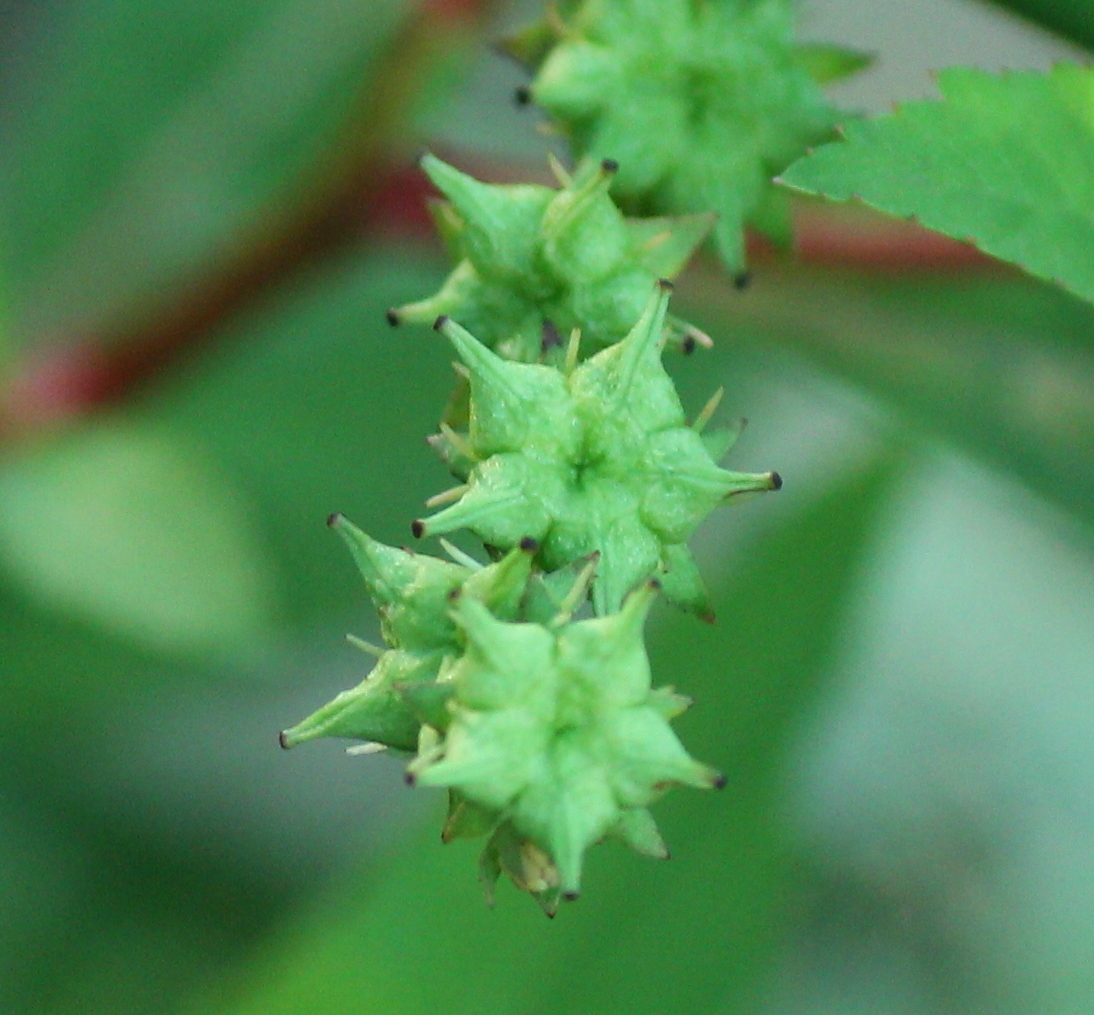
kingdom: Plantae
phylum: Tracheophyta
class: Magnoliopsida
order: Saxifragales
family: Penthoraceae
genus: Penthorum
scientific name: Penthorum sedoides
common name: Ditch stonecrop
